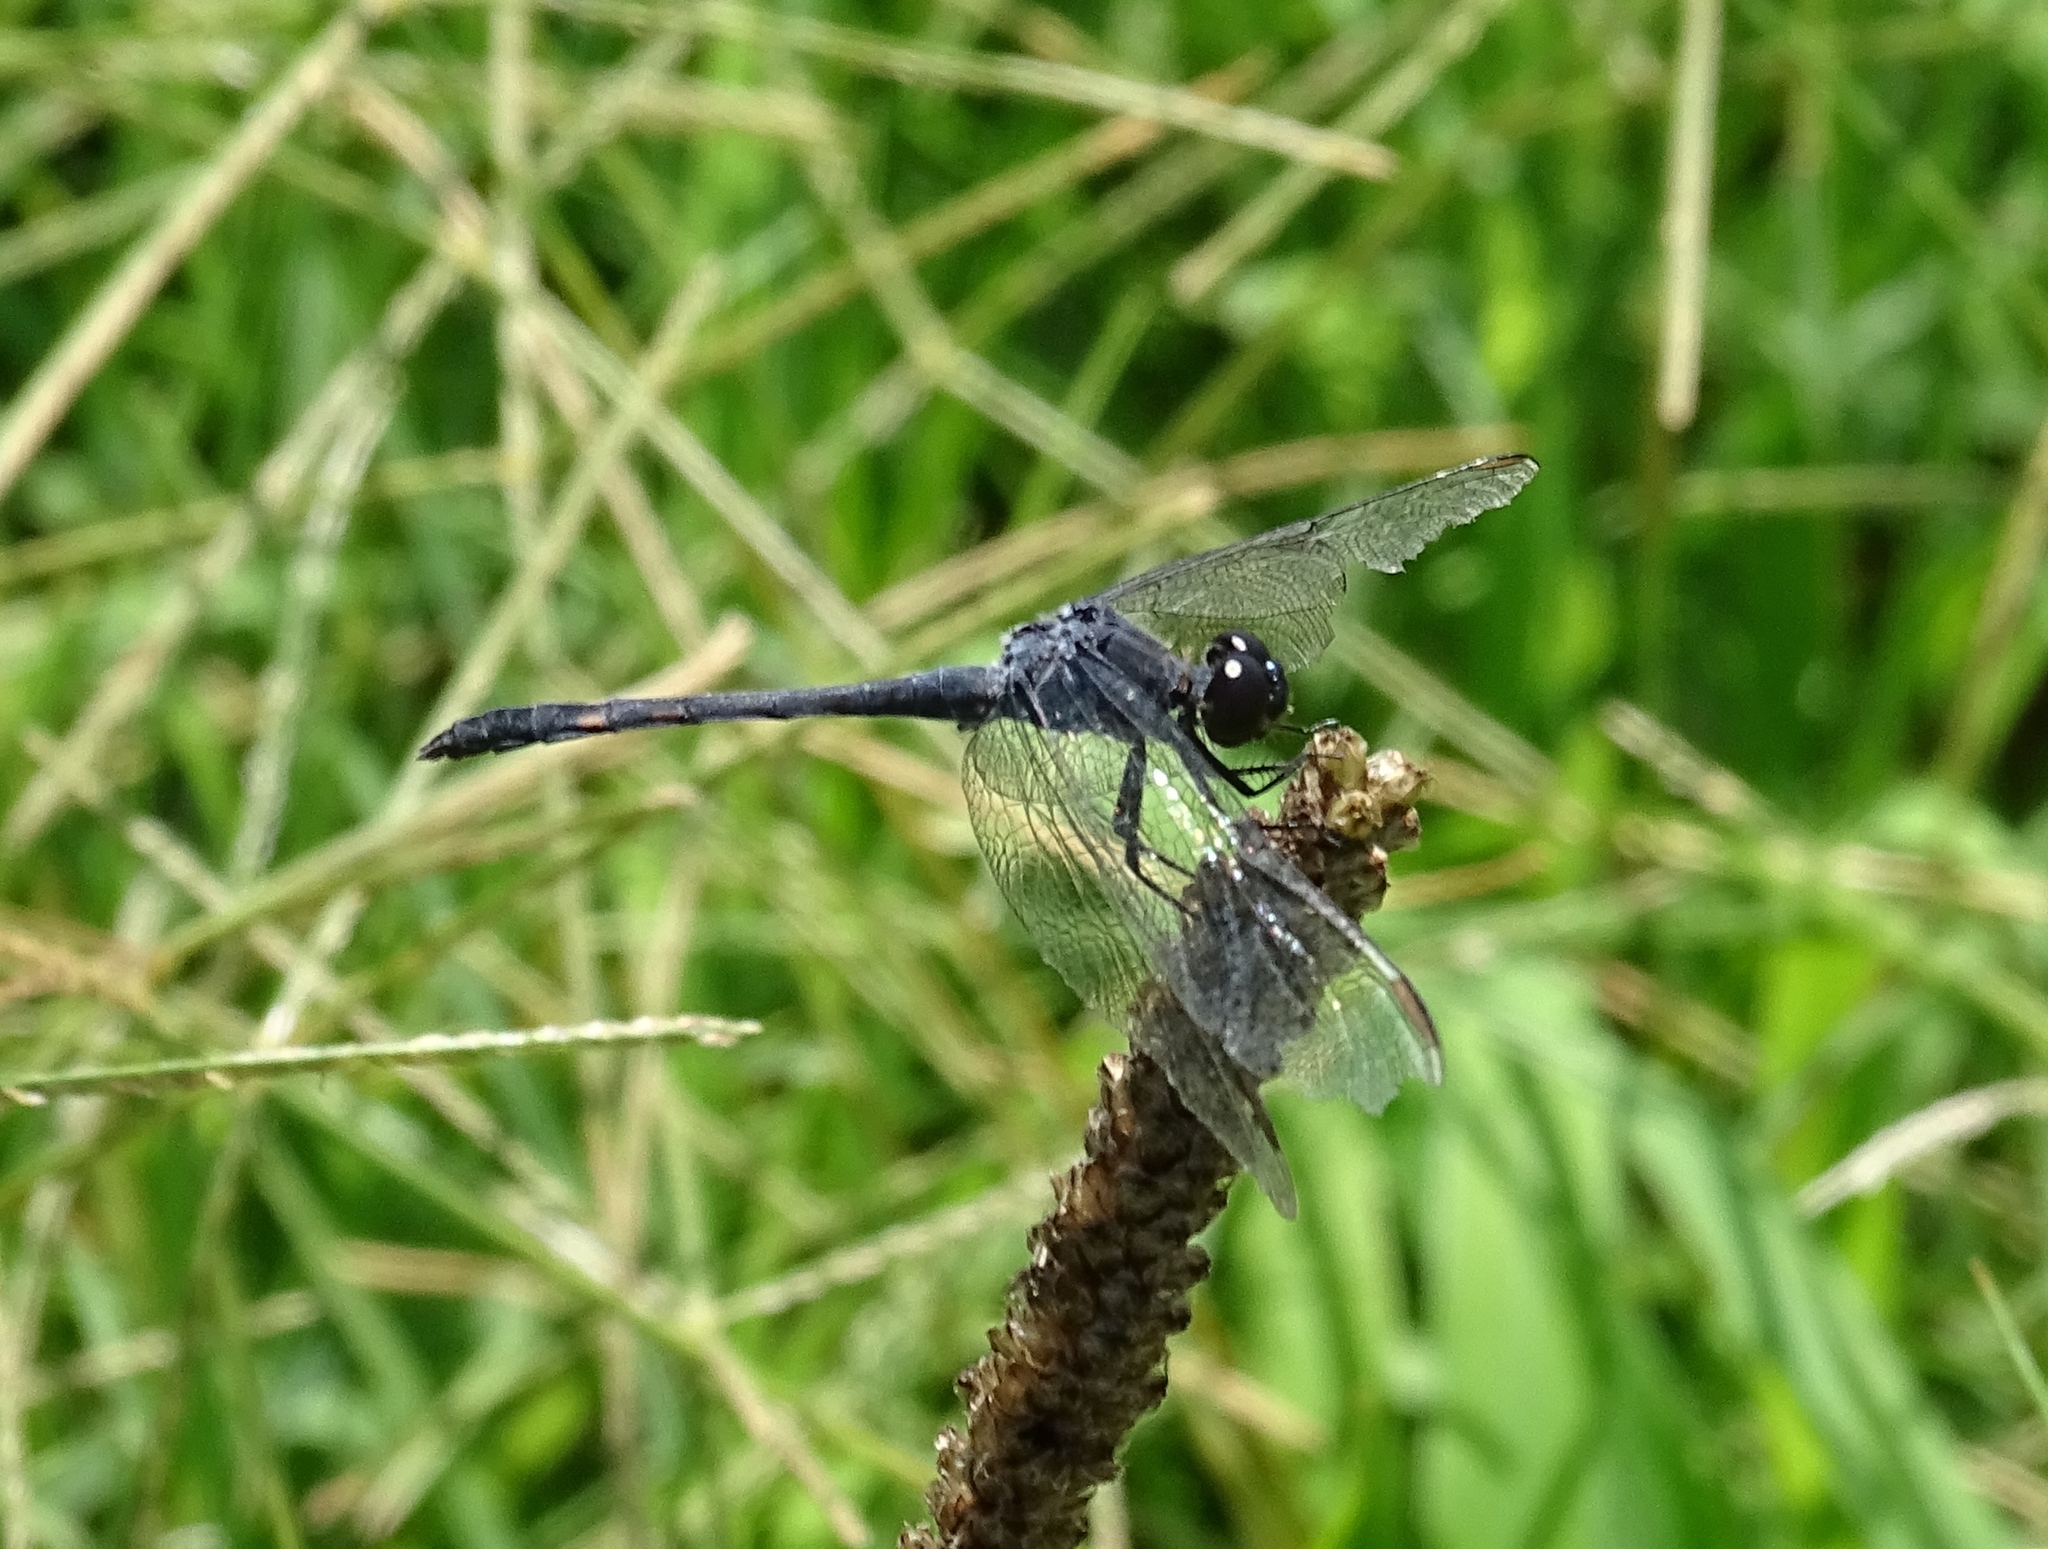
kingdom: Animalia
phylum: Arthropoda
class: Insecta
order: Odonata
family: Libellulidae
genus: Erythrodiplax
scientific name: Erythrodiplax berenice
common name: Seaside dragonlet
